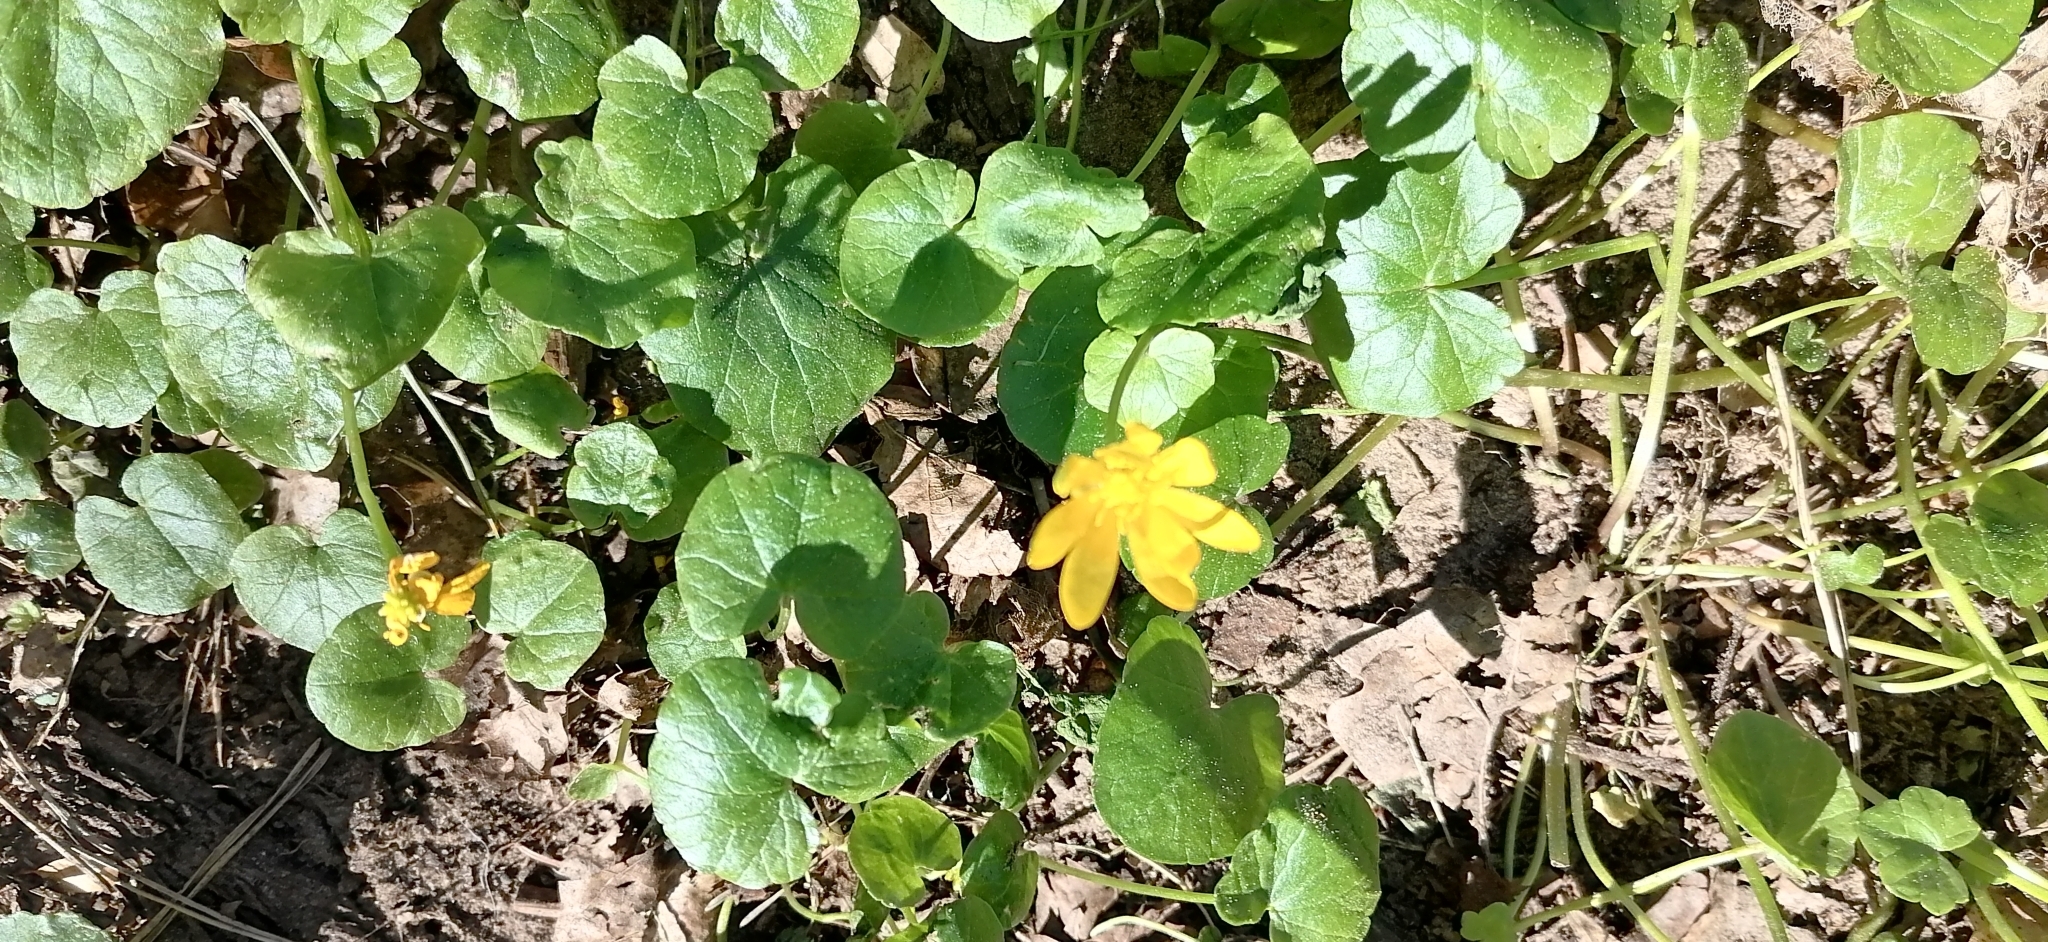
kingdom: Plantae
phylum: Tracheophyta
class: Magnoliopsida
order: Ranunculales
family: Ranunculaceae
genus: Ficaria
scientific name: Ficaria verna
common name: Lesser celandine
